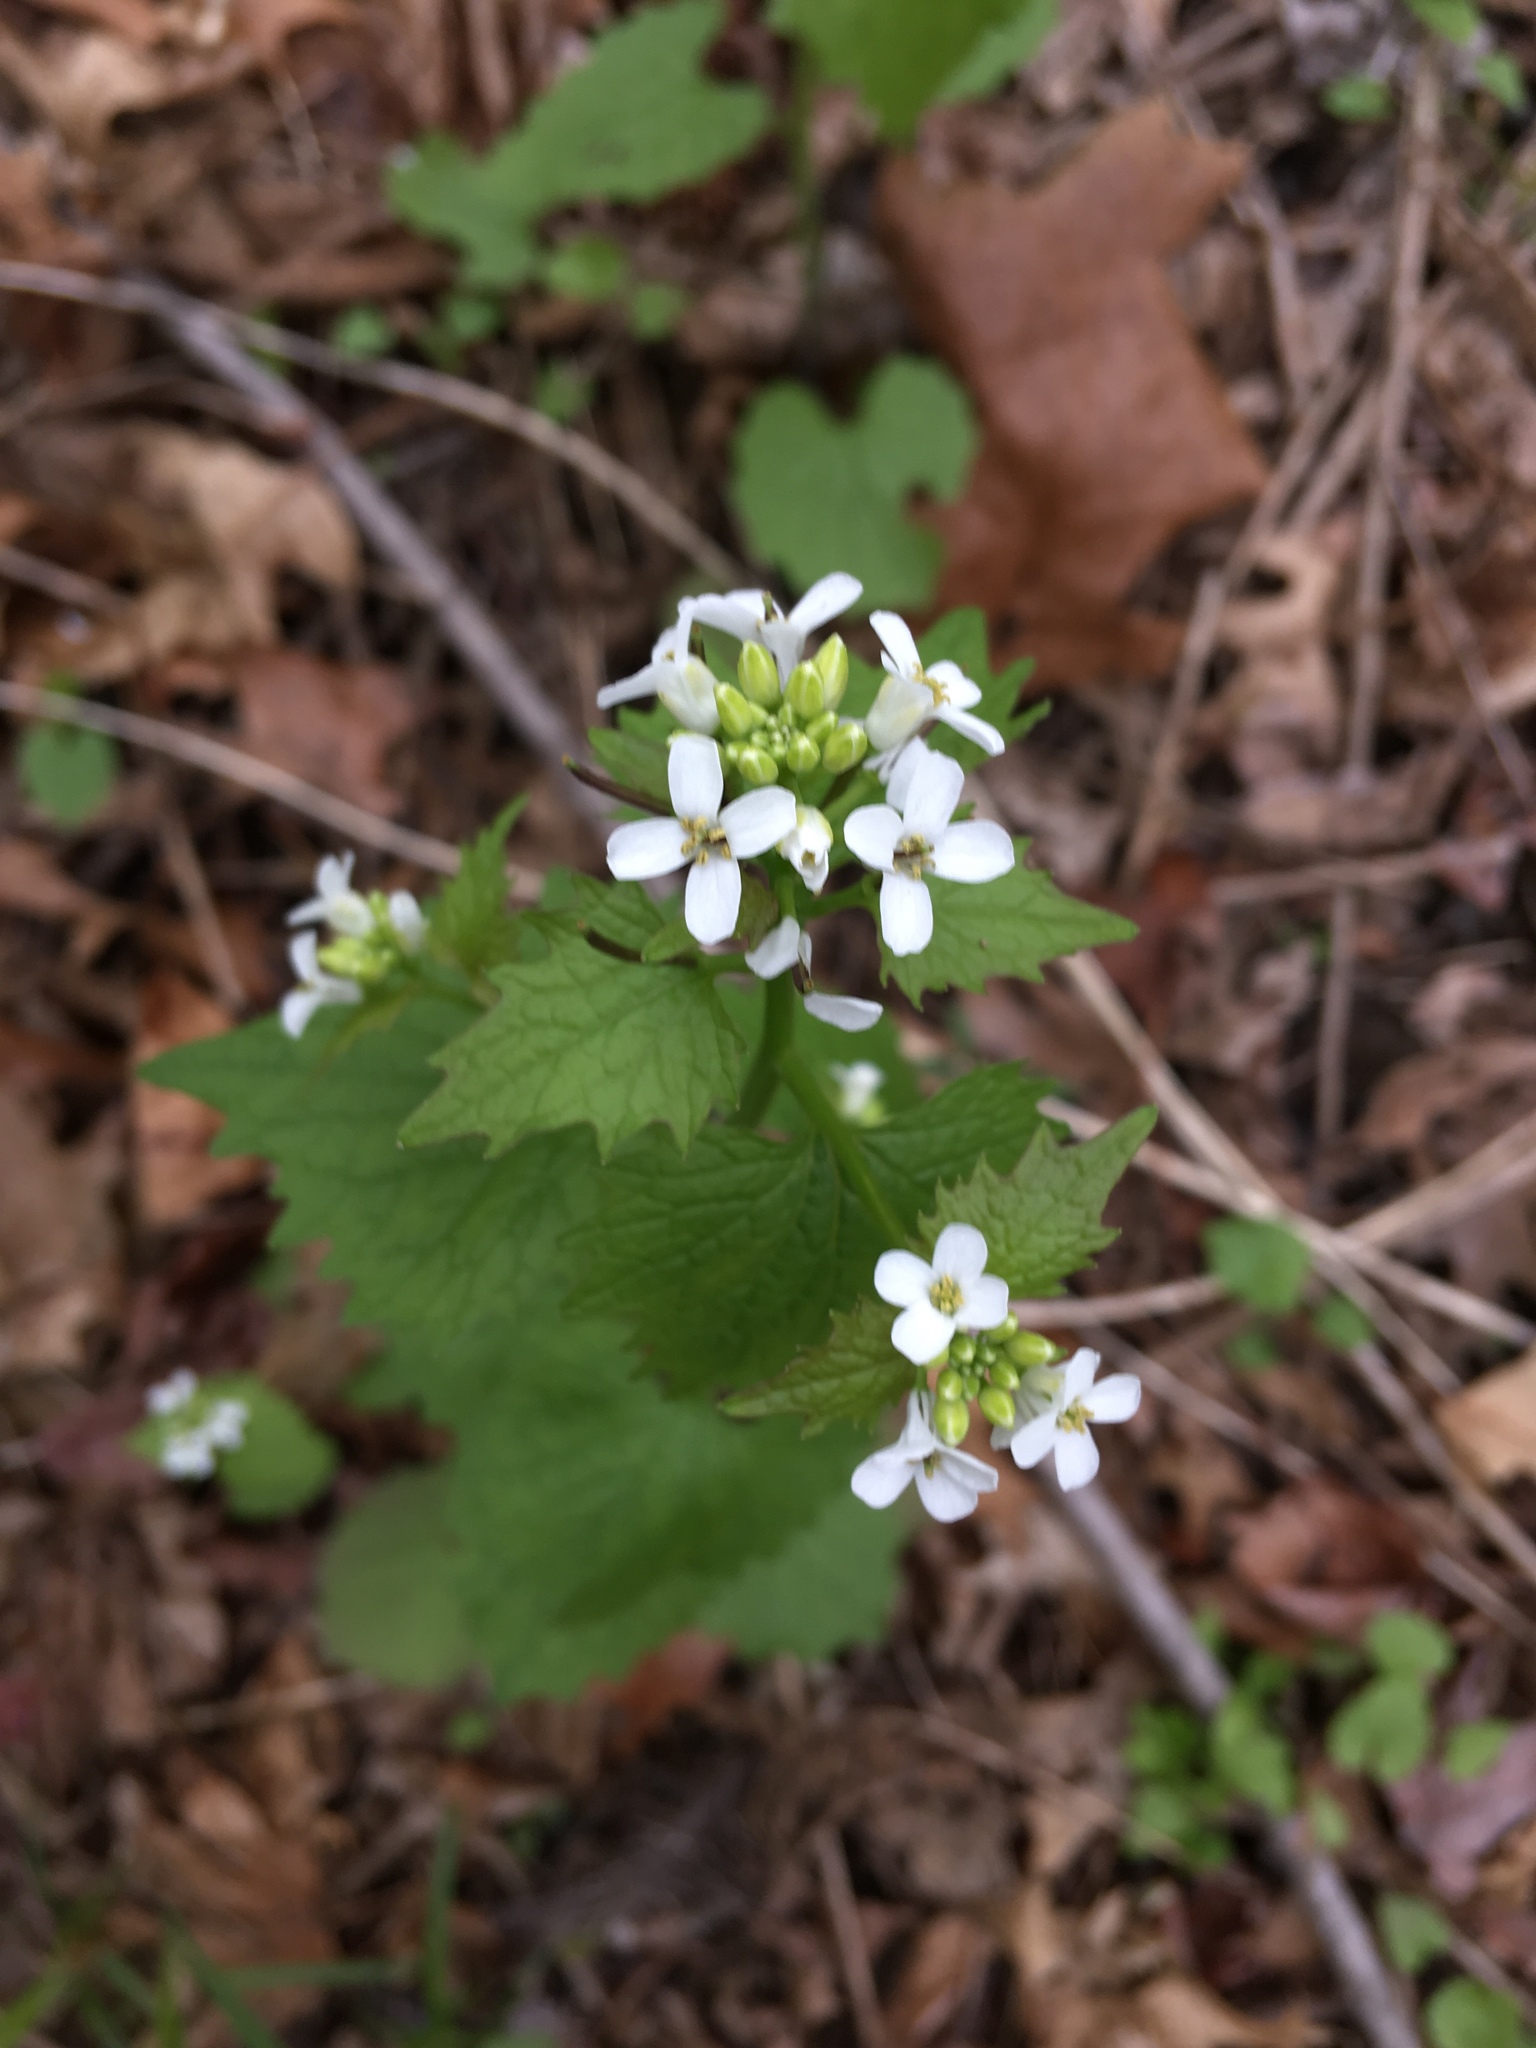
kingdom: Plantae
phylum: Tracheophyta
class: Magnoliopsida
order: Brassicales
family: Brassicaceae
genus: Alliaria
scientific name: Alliaria petiolata
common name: Garlic mustard
